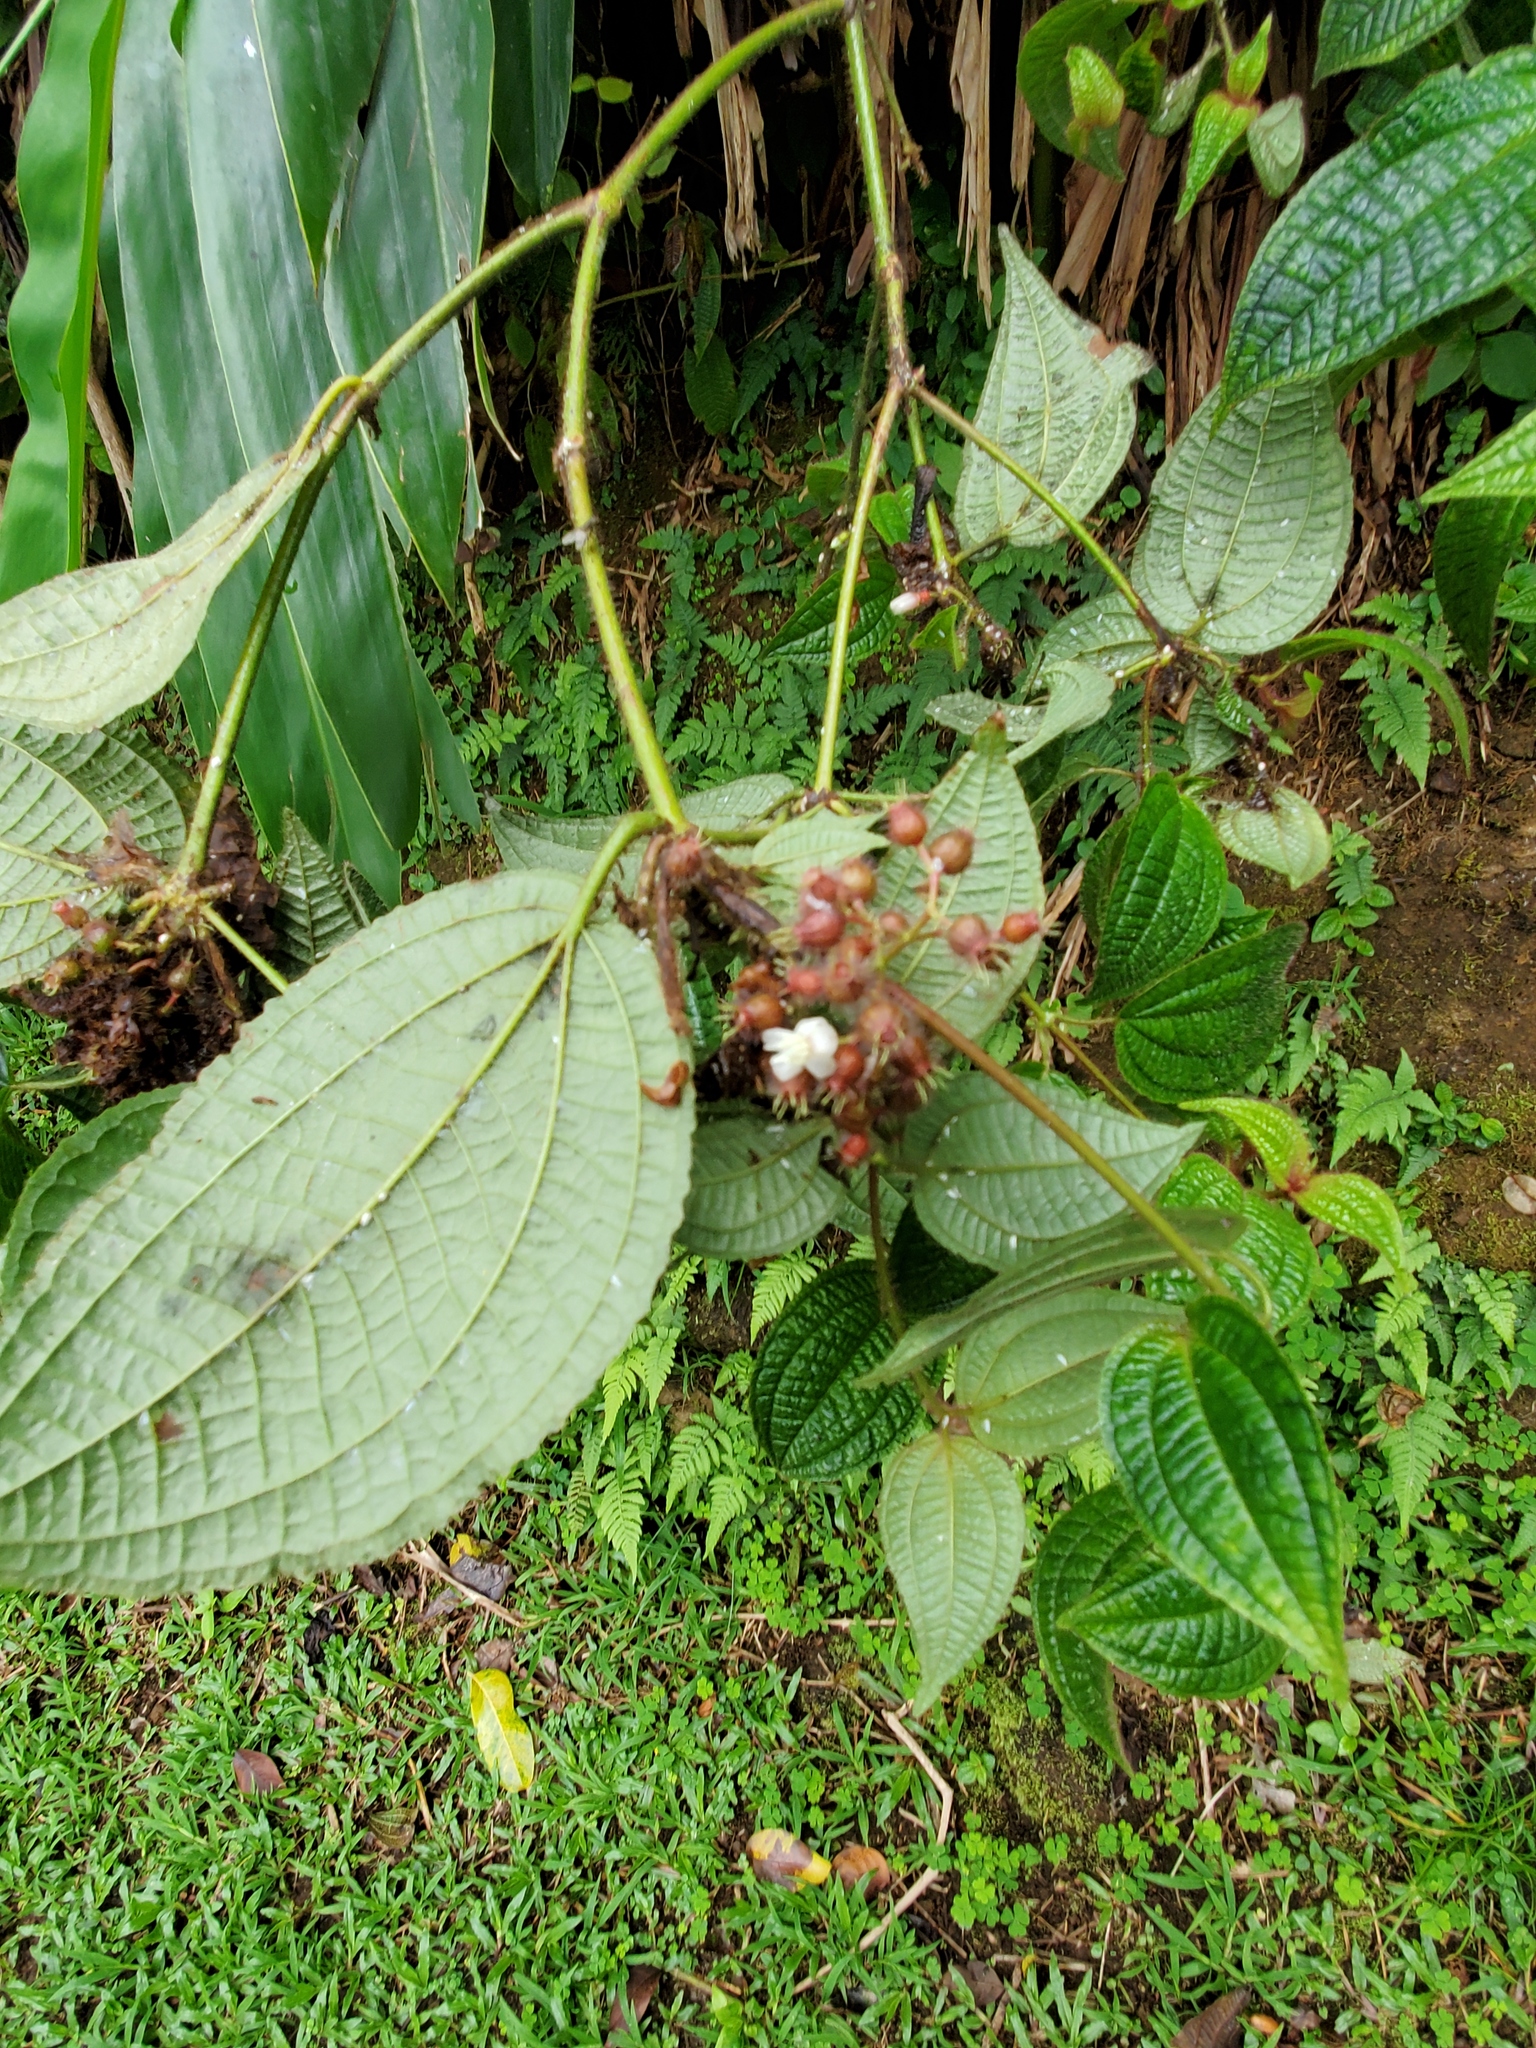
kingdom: Plantae
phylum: Tracheophyta
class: Magnoliopsida
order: Myrtales
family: Melastomataceae
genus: Miconia
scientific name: Miconia crenata
